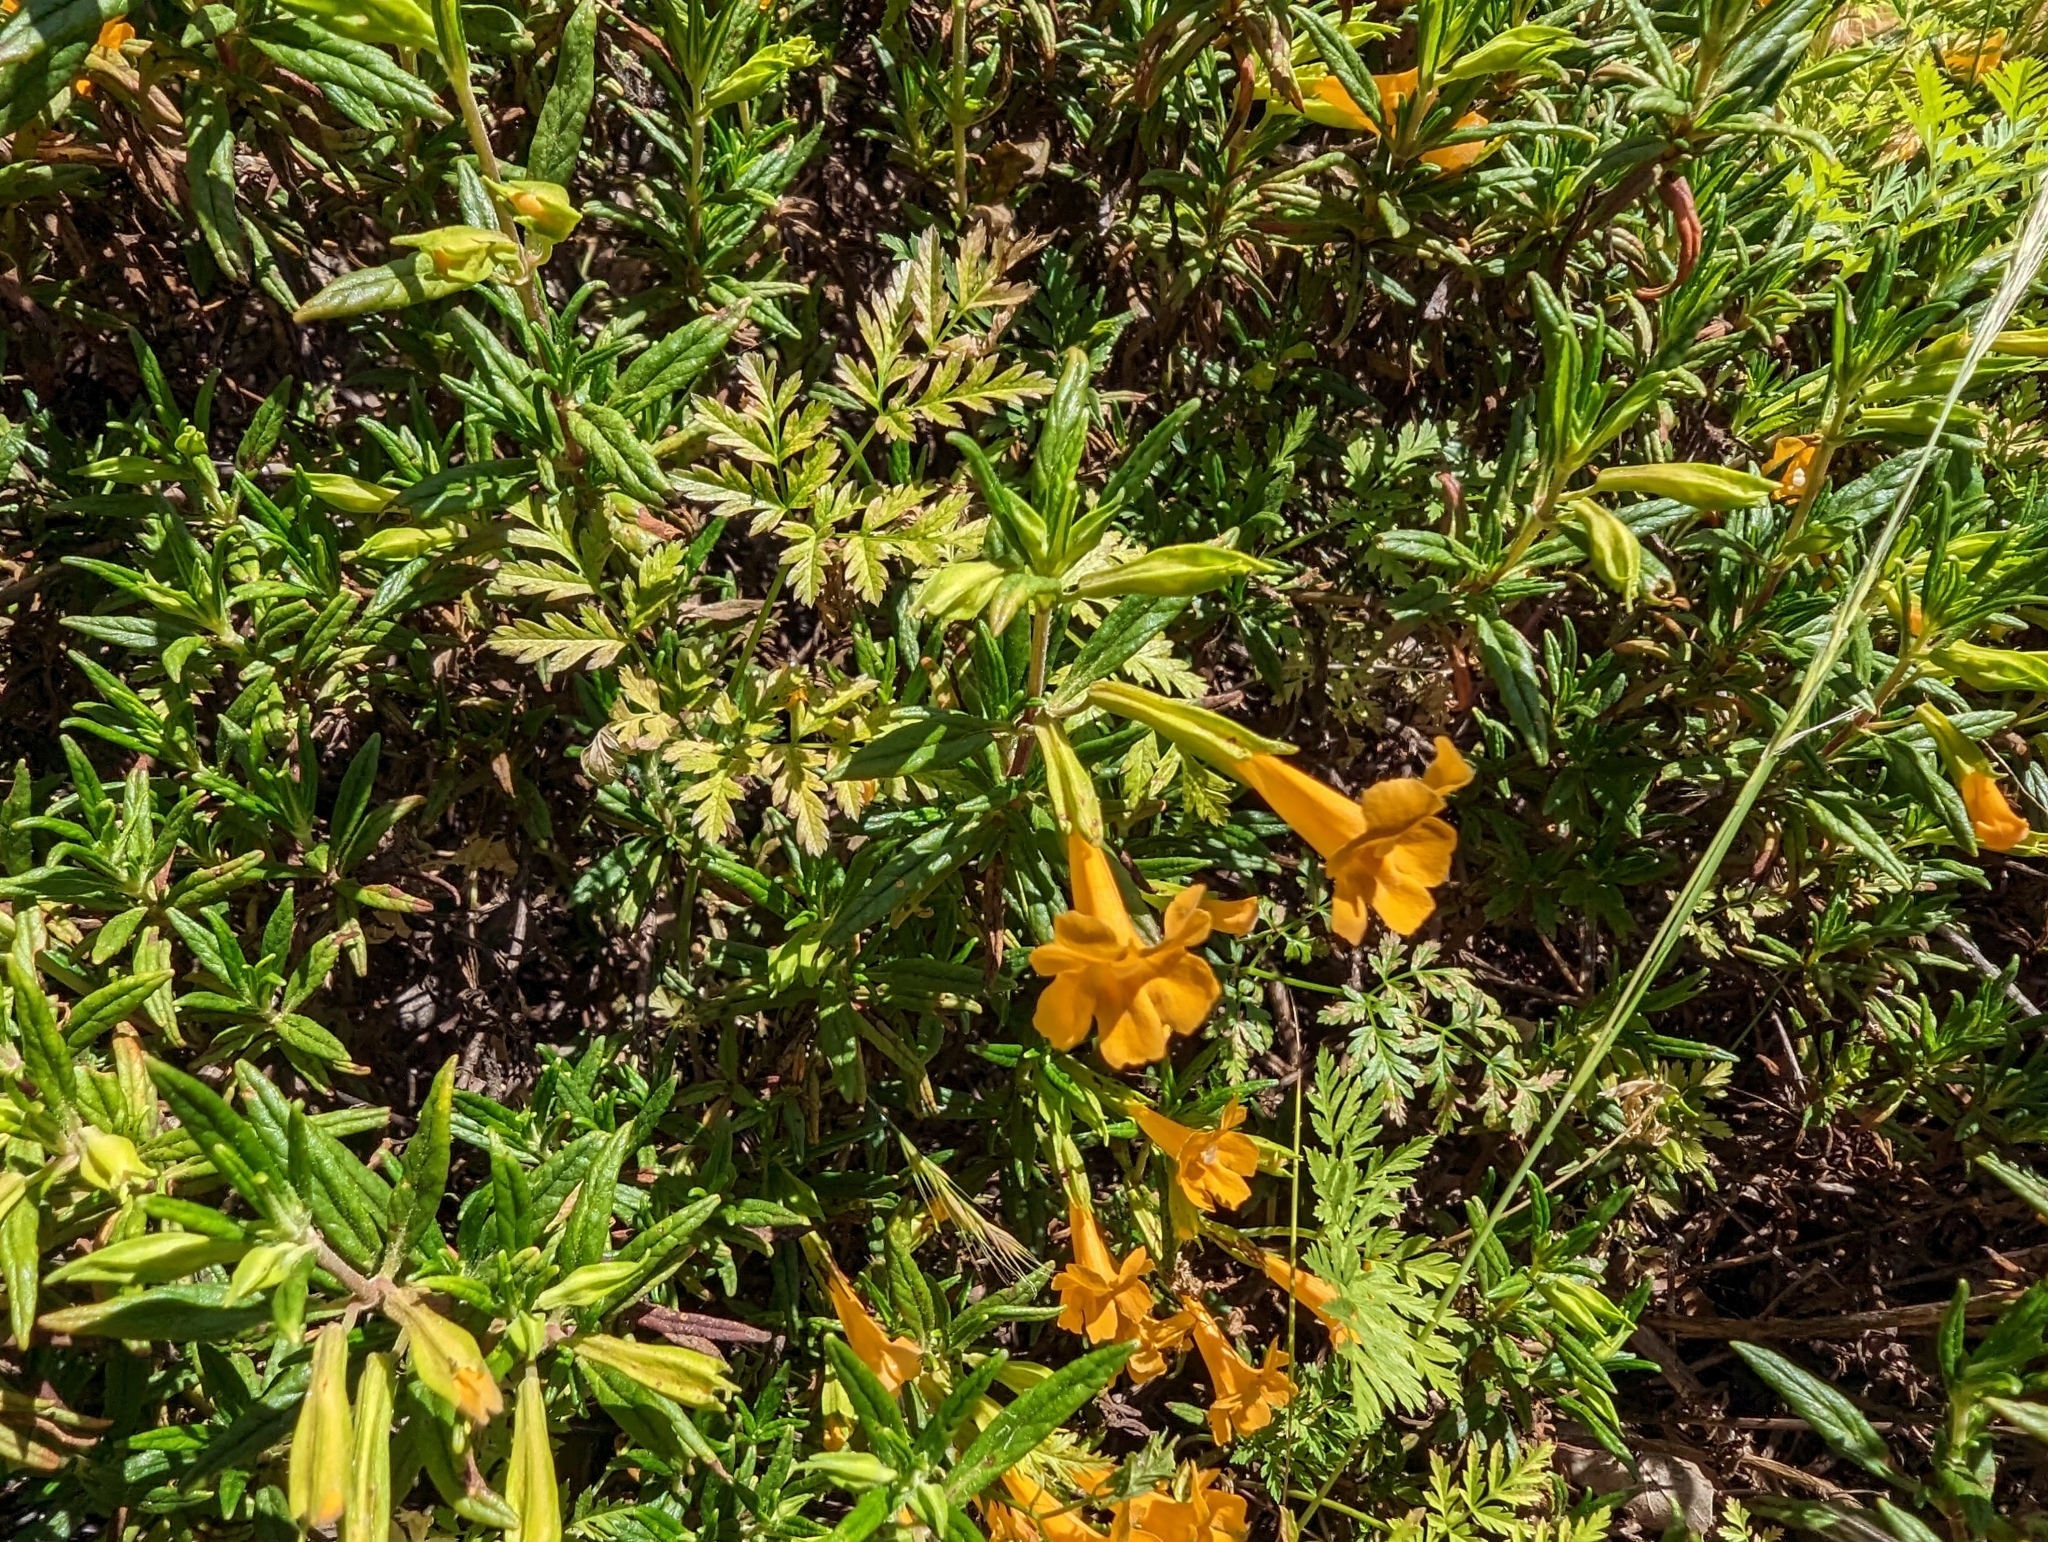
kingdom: Plantae
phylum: Tracheophyta
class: Magnoliopsida
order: Lamiales
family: Phrymaceae
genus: Diplacus
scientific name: Diplacus aurantiacus
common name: Bush monkey-flower
